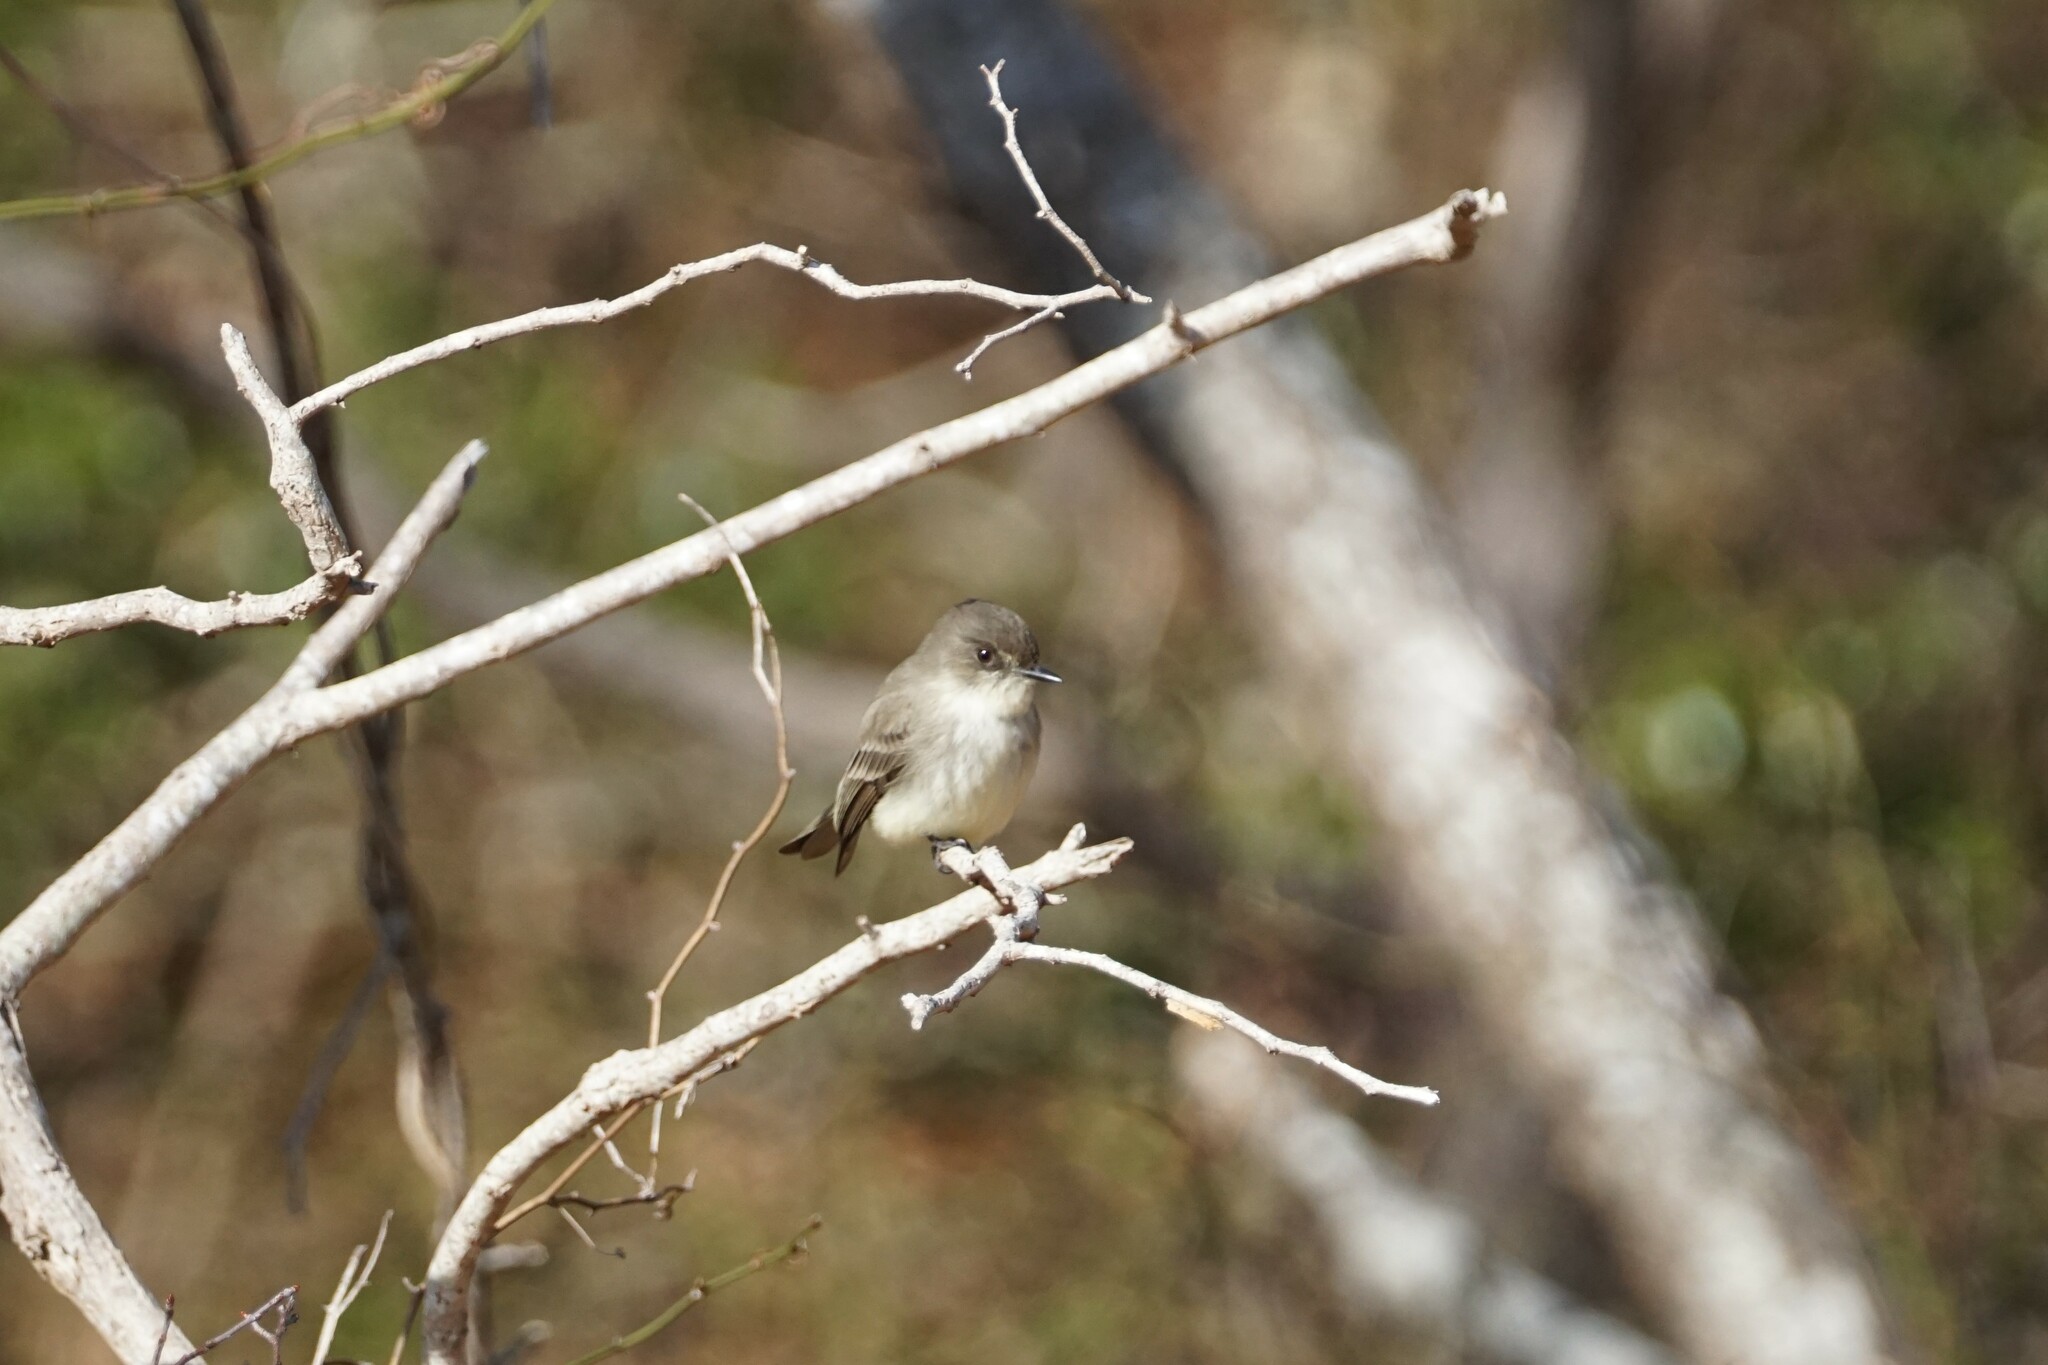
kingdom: Animalia
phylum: Chordata
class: Aves
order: Passeriformes
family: Tyrannidae
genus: Sayornis
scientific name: Sayornis phoebe
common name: Eastern phoebe
